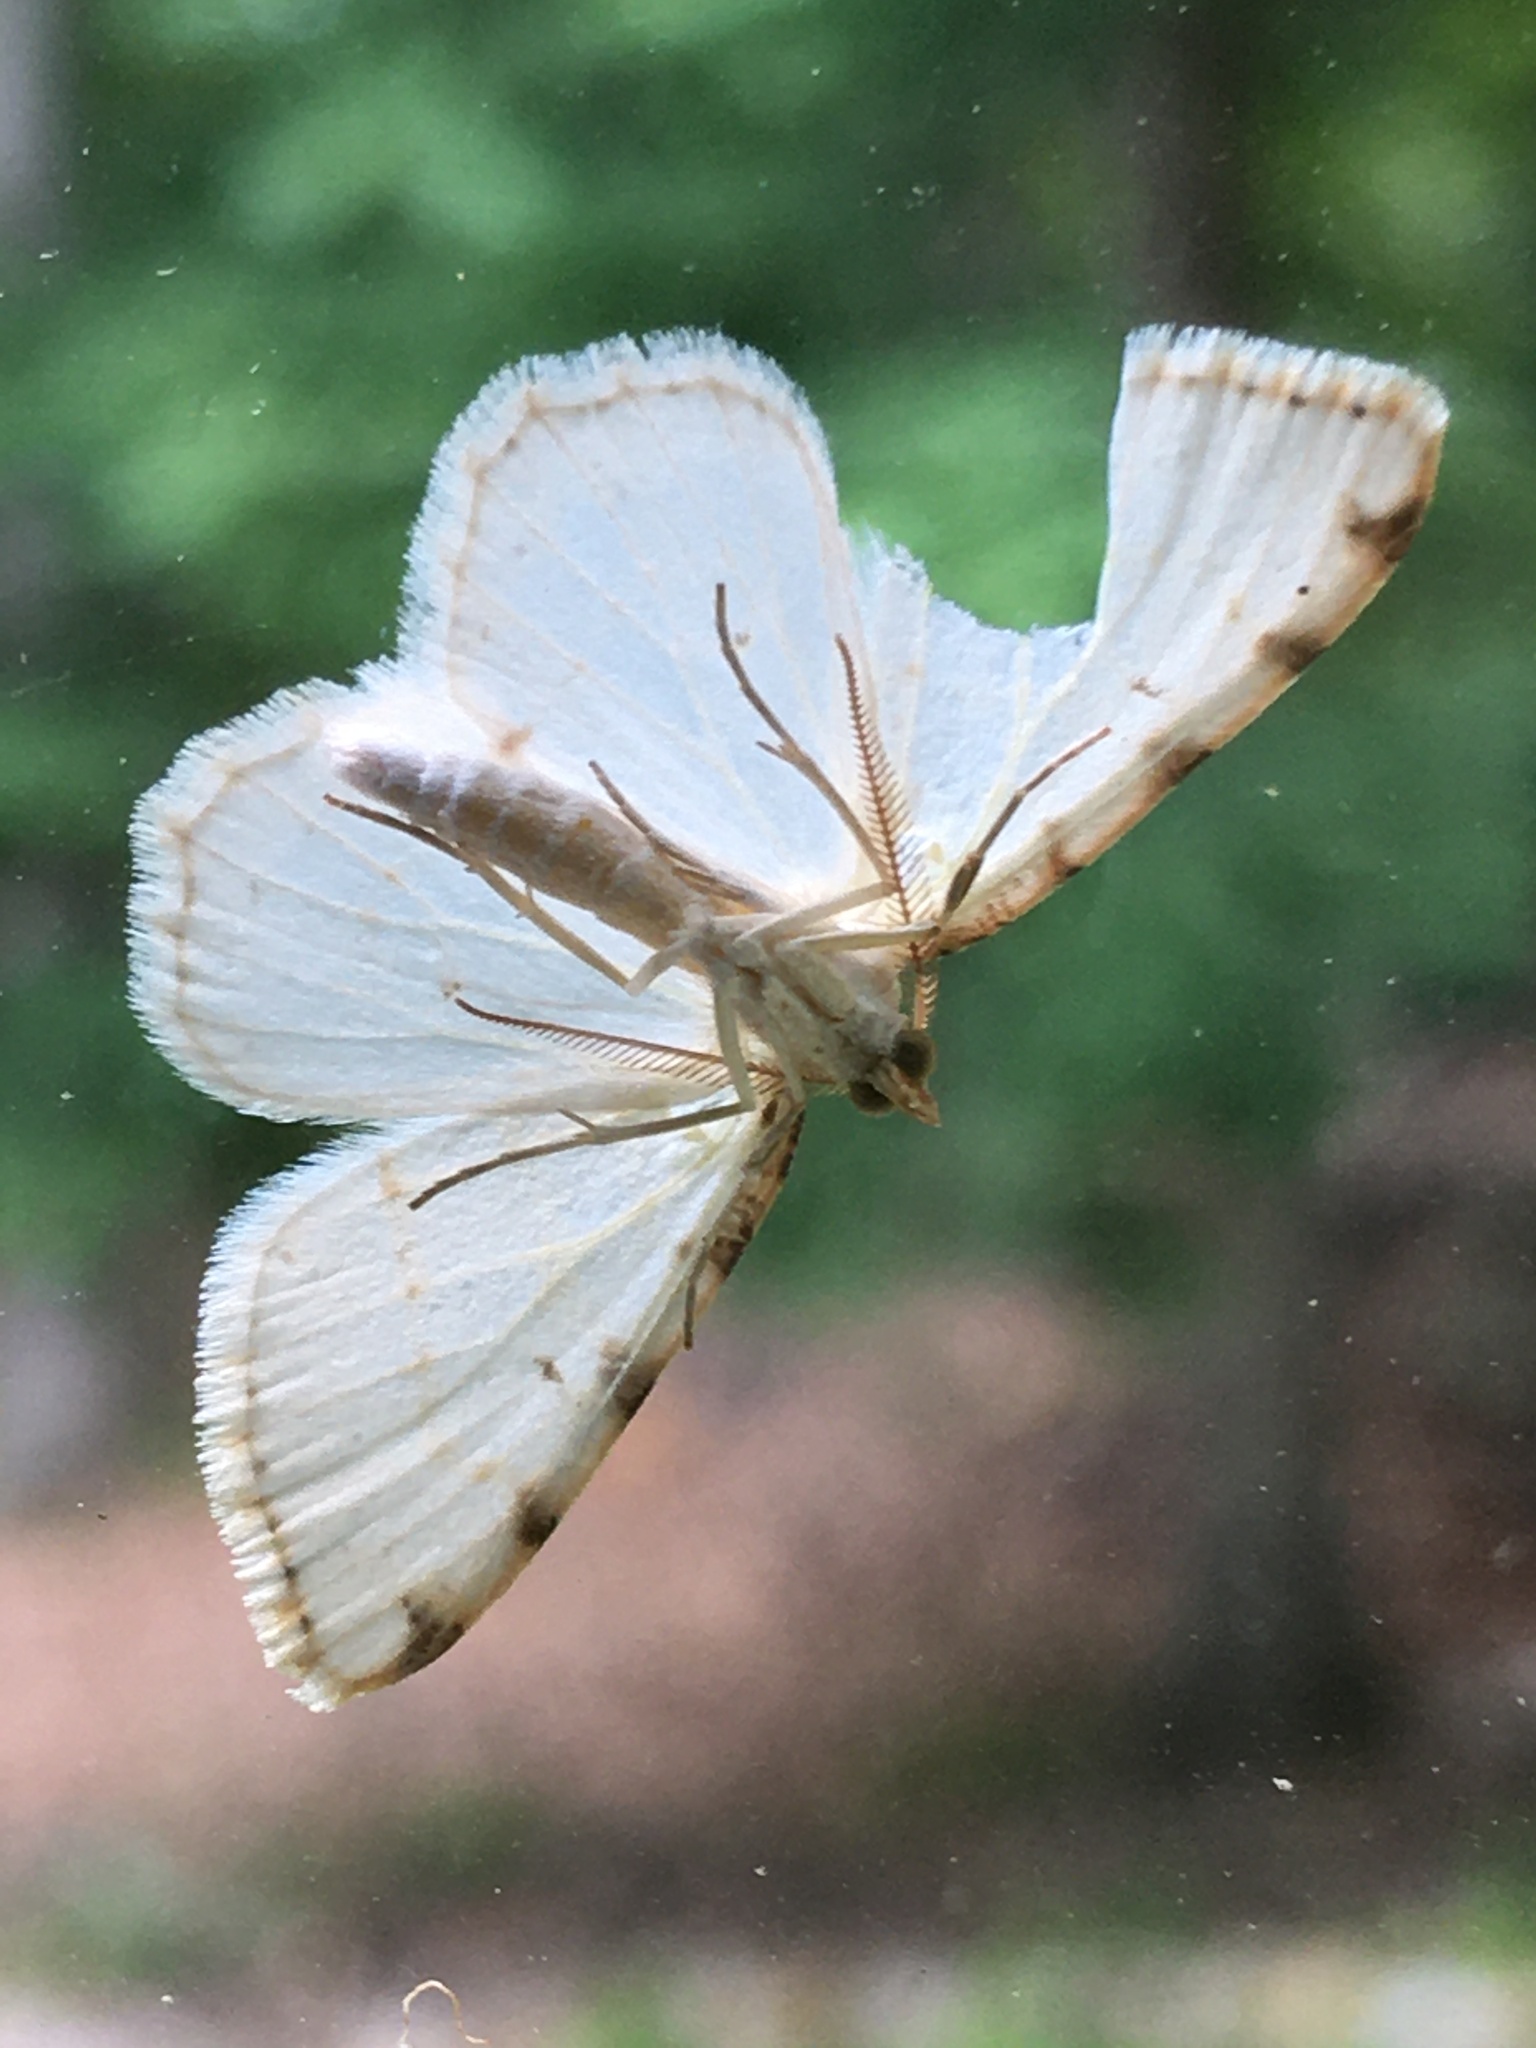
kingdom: Animalia
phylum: Arthropoda
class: Insecta
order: Lepidoptera
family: Geometridae
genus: Macaria
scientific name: Macaria pustularia
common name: Lesser maple spanworm moth
